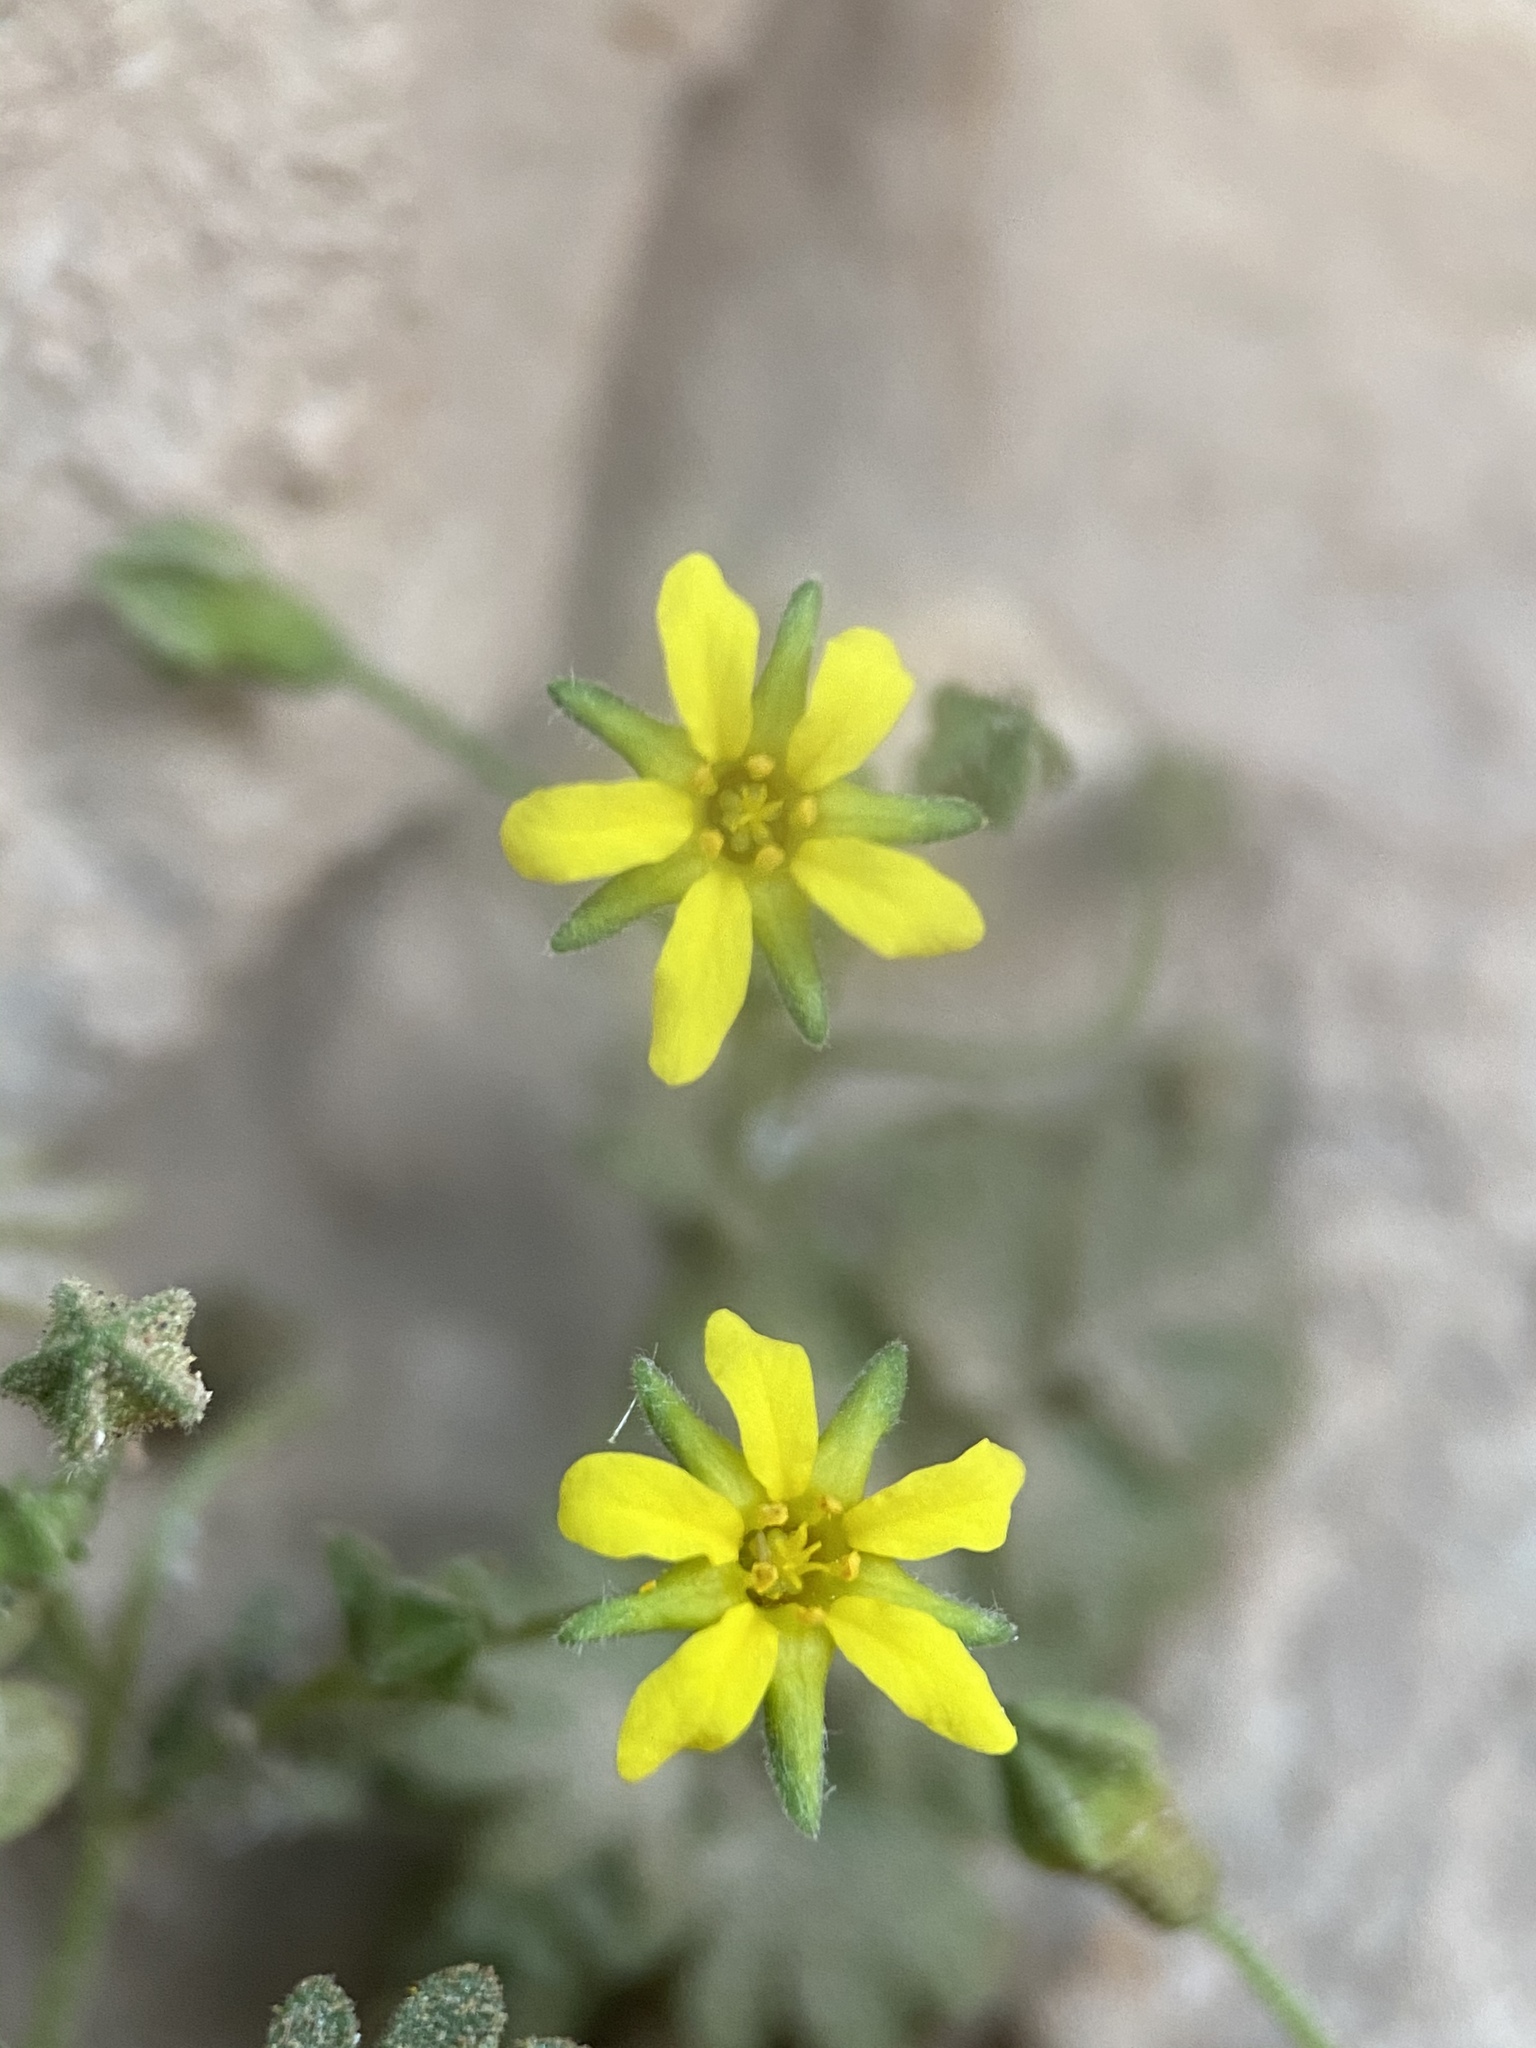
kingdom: Plantae
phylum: Tracheophyta
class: Magnoliopsida
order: Rosales
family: Rosaceae
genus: Potentilla
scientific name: Potentilla osterhoutii
